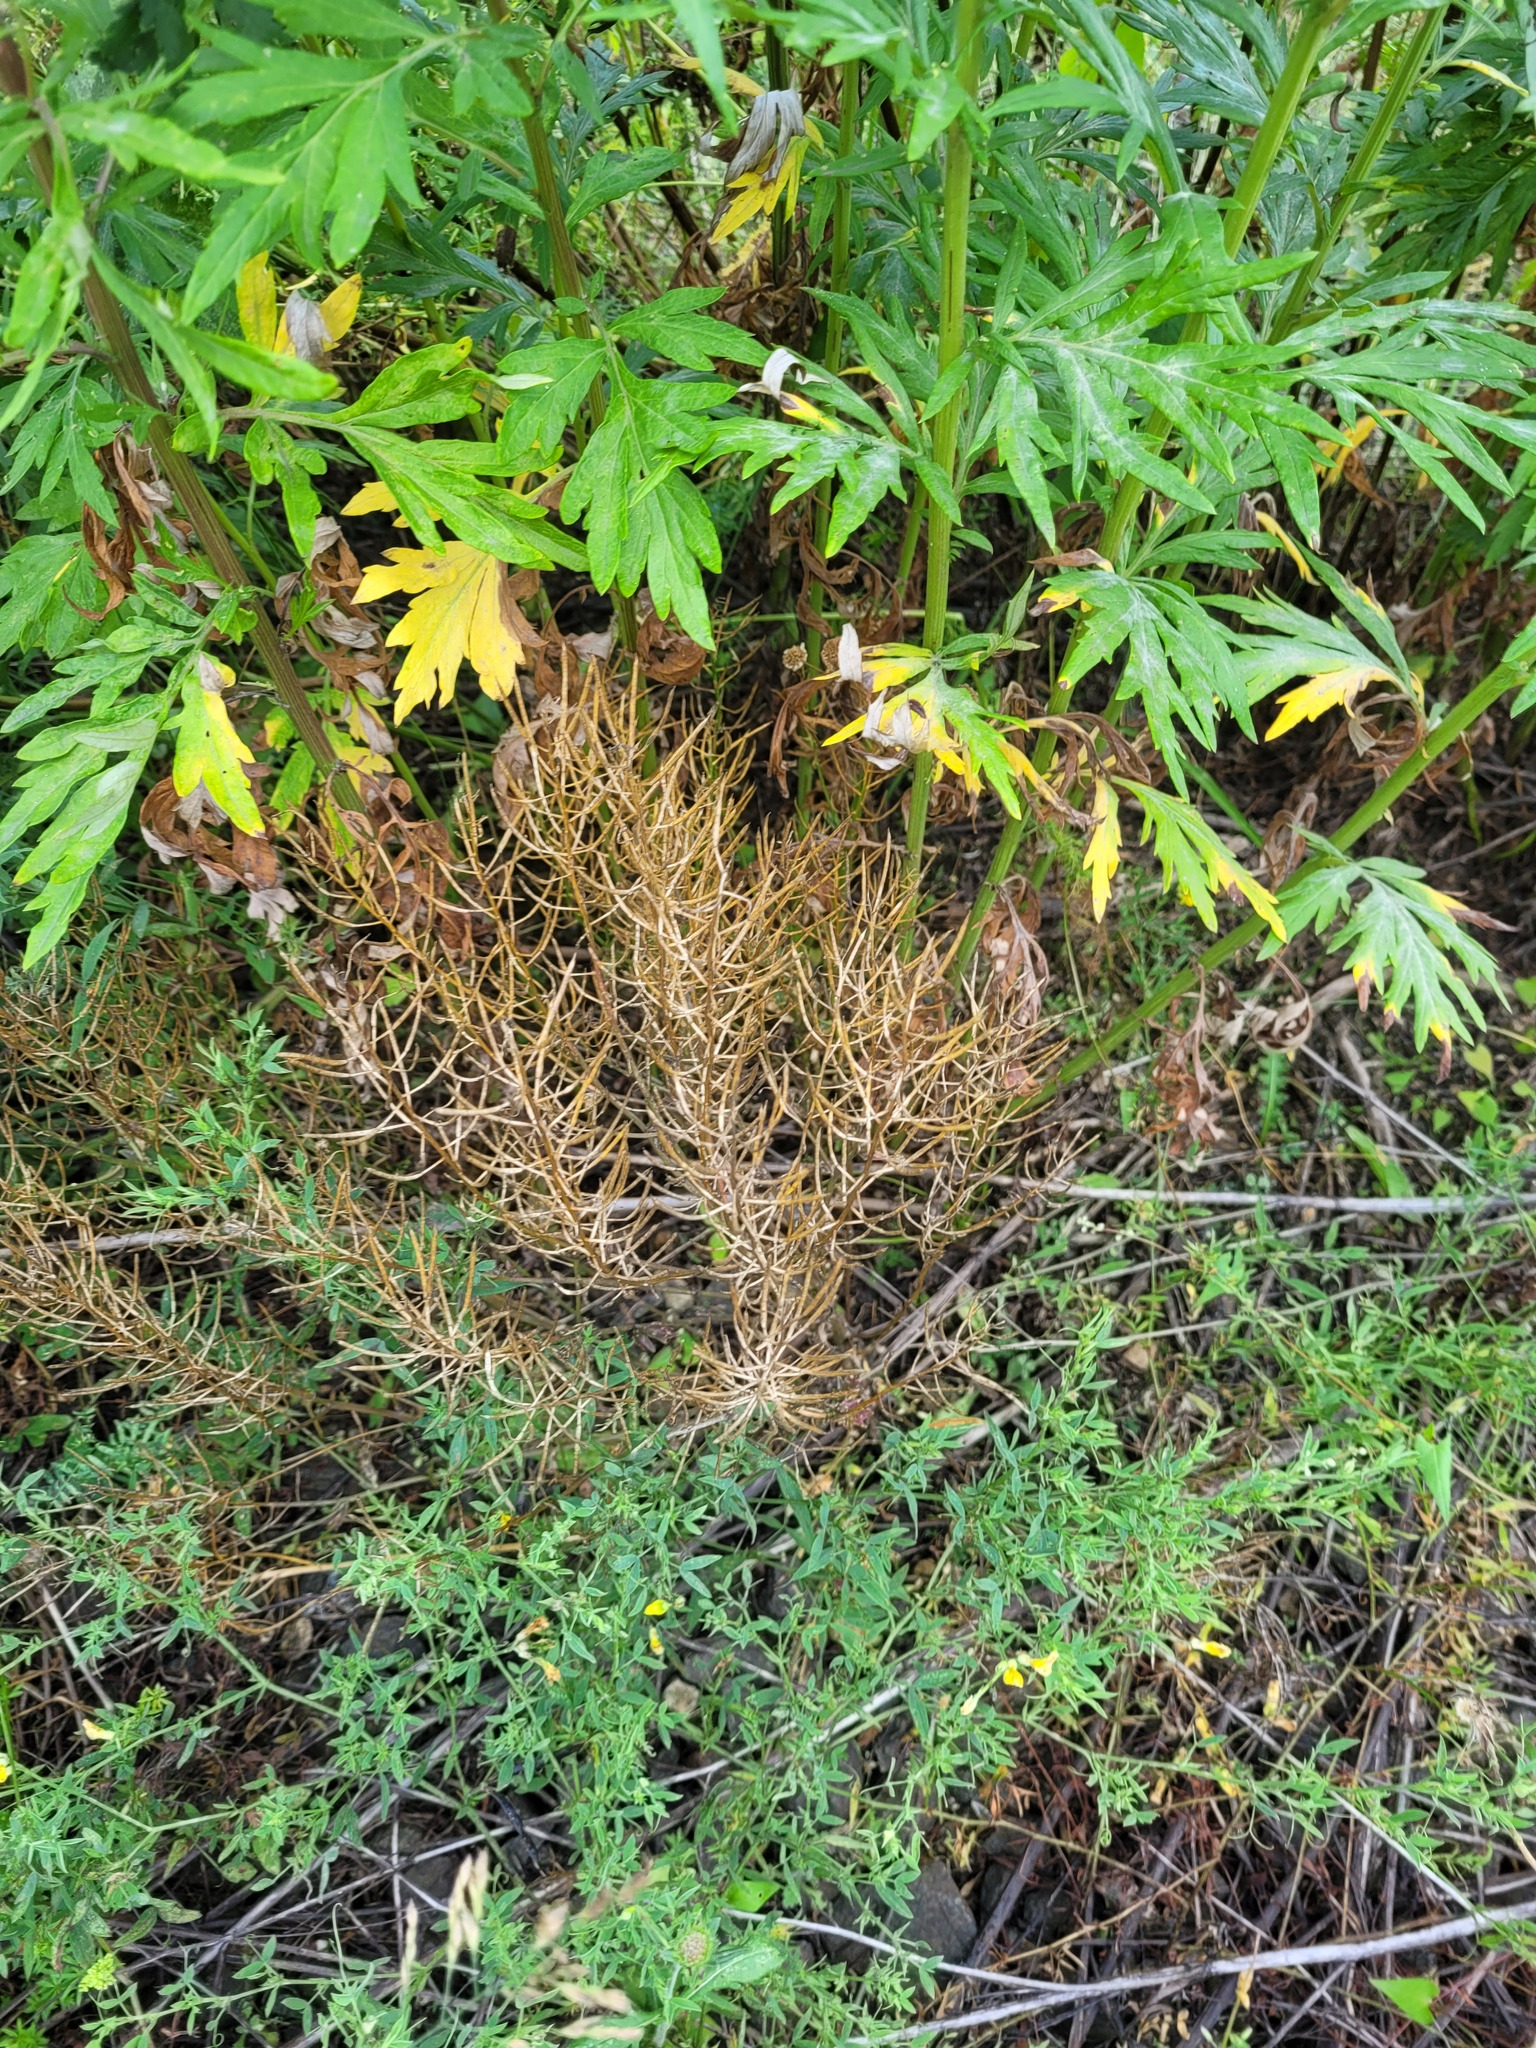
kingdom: Plantae
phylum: Tracheophyta
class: Magnoliopsida
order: Brassicales
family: Brassicaceae
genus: Barbarea
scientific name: Barbarea vulgaris
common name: Cressy-greens
